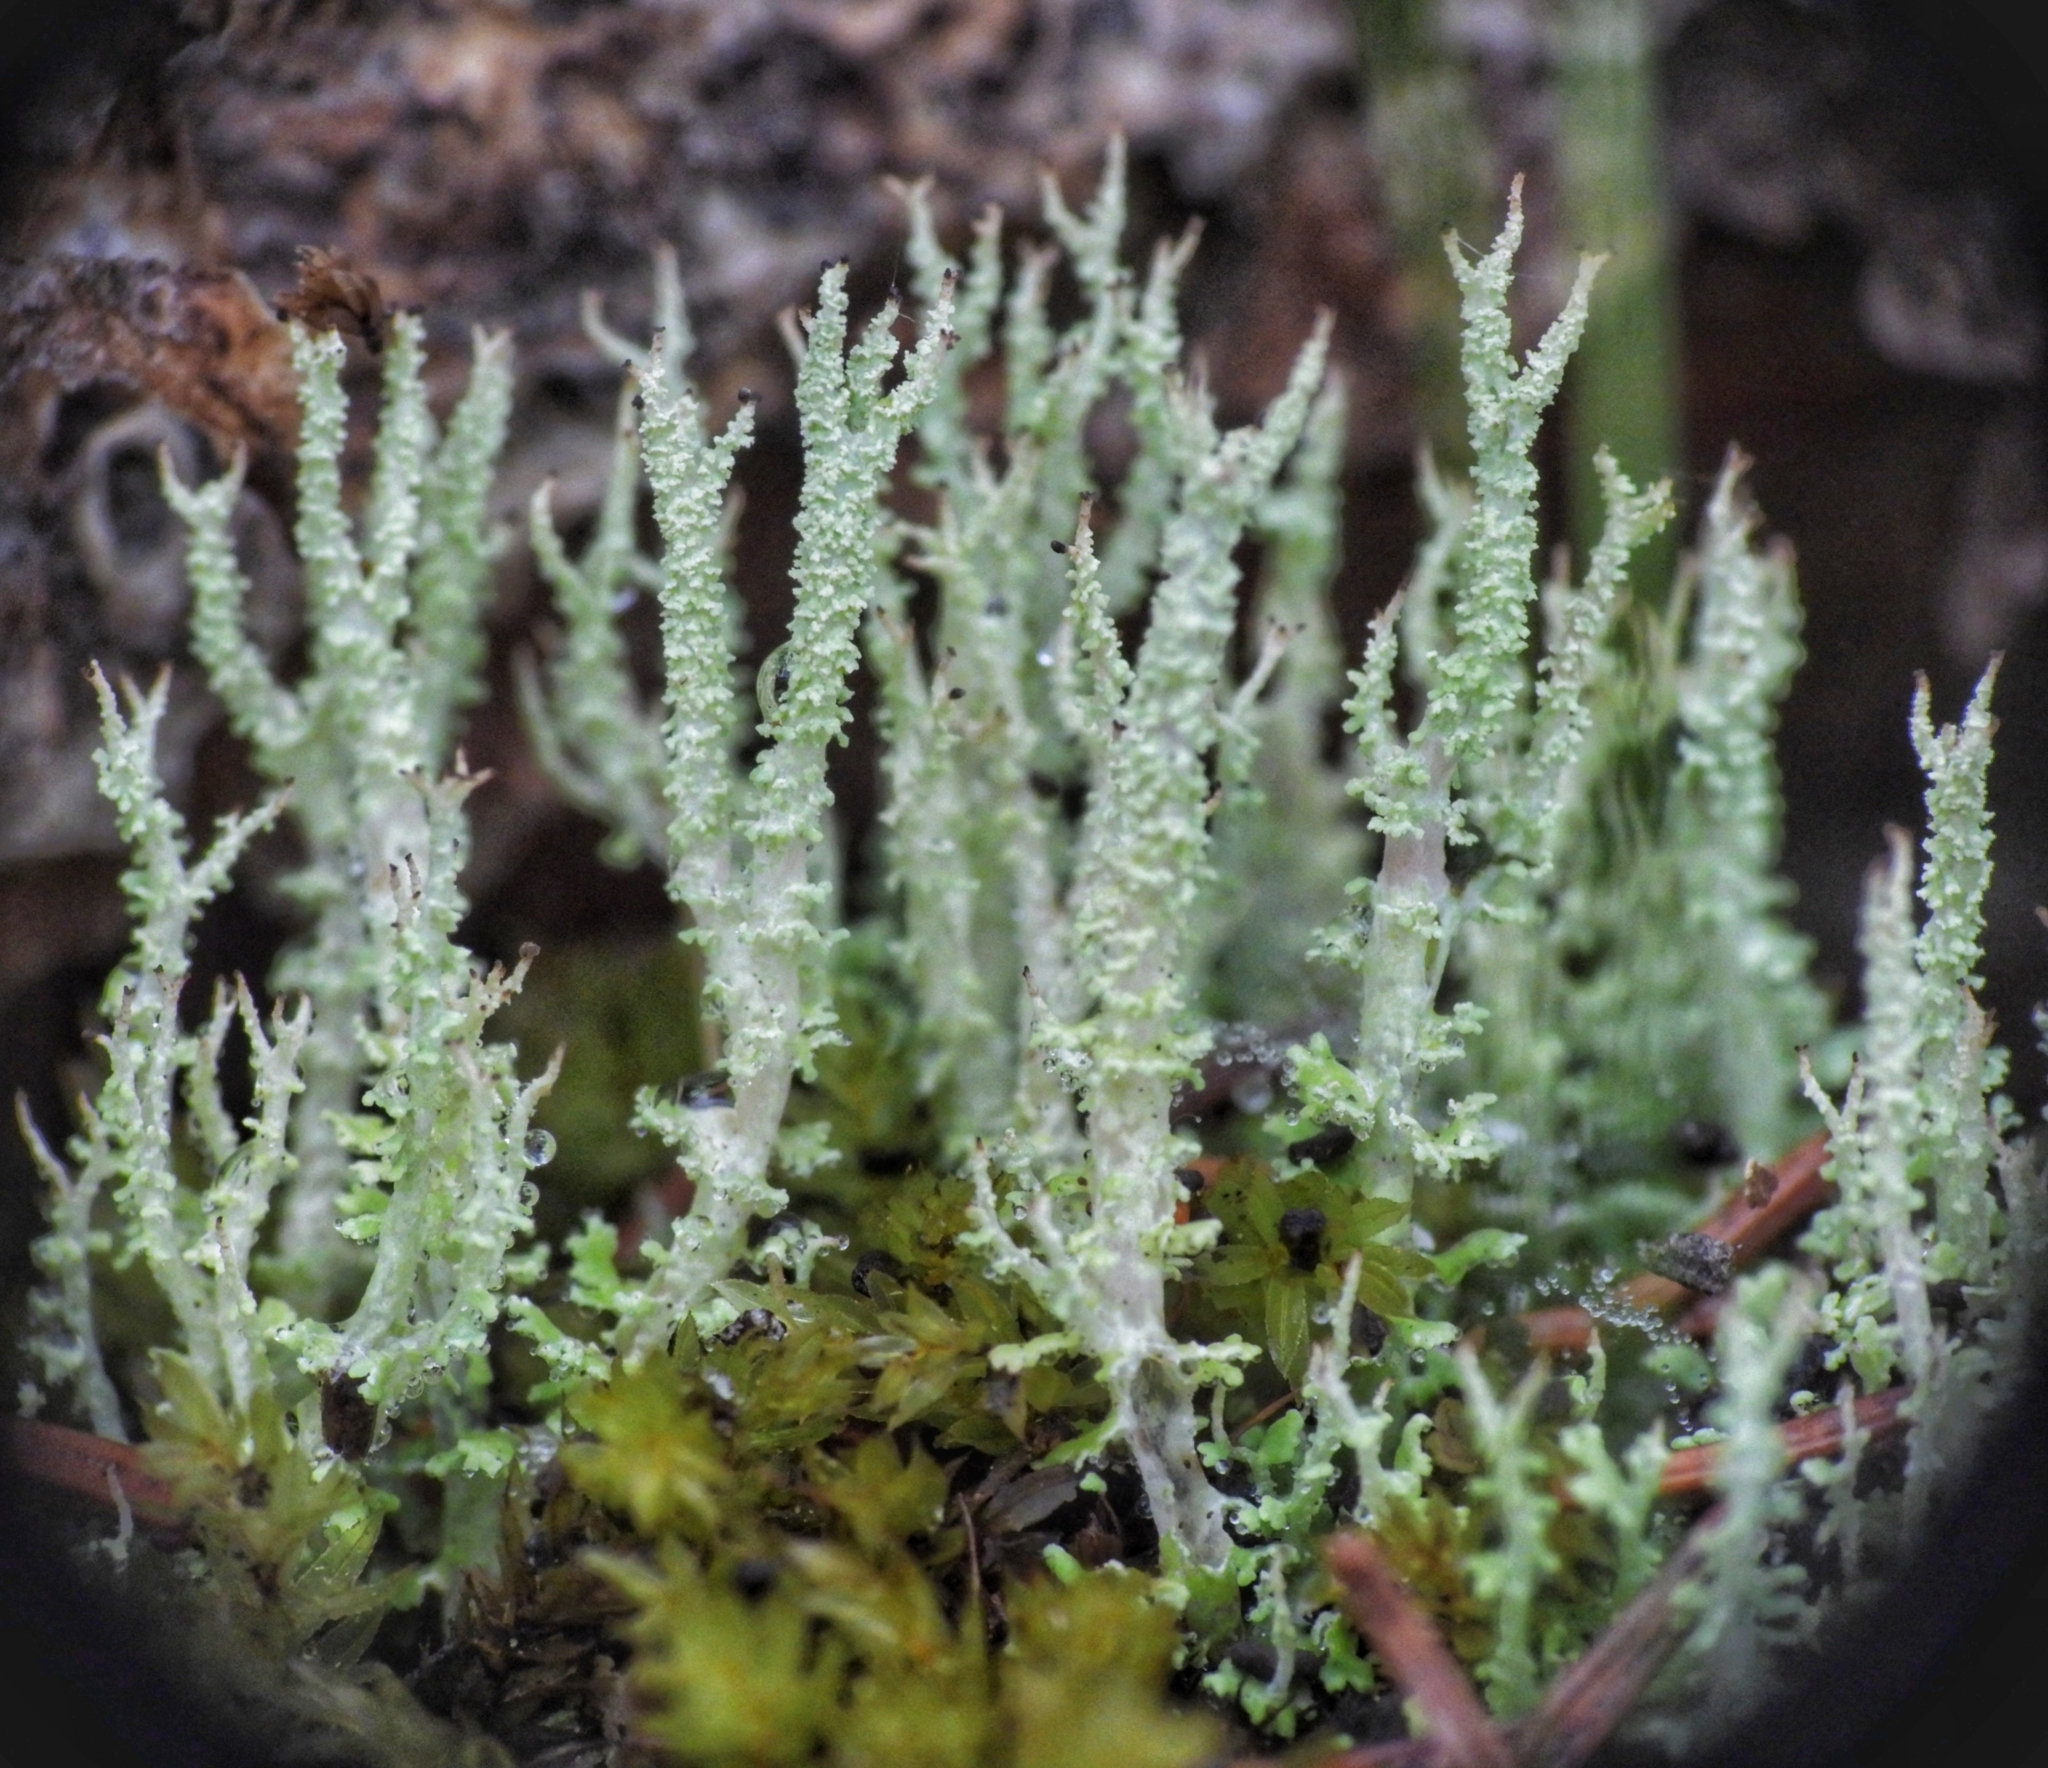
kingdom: Fungi
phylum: Ascomycota
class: Lecanoromycetes
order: Lecanorales
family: Cladoniaceae
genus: Cladonia
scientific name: Cladonia squamosa
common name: Dragon horn
